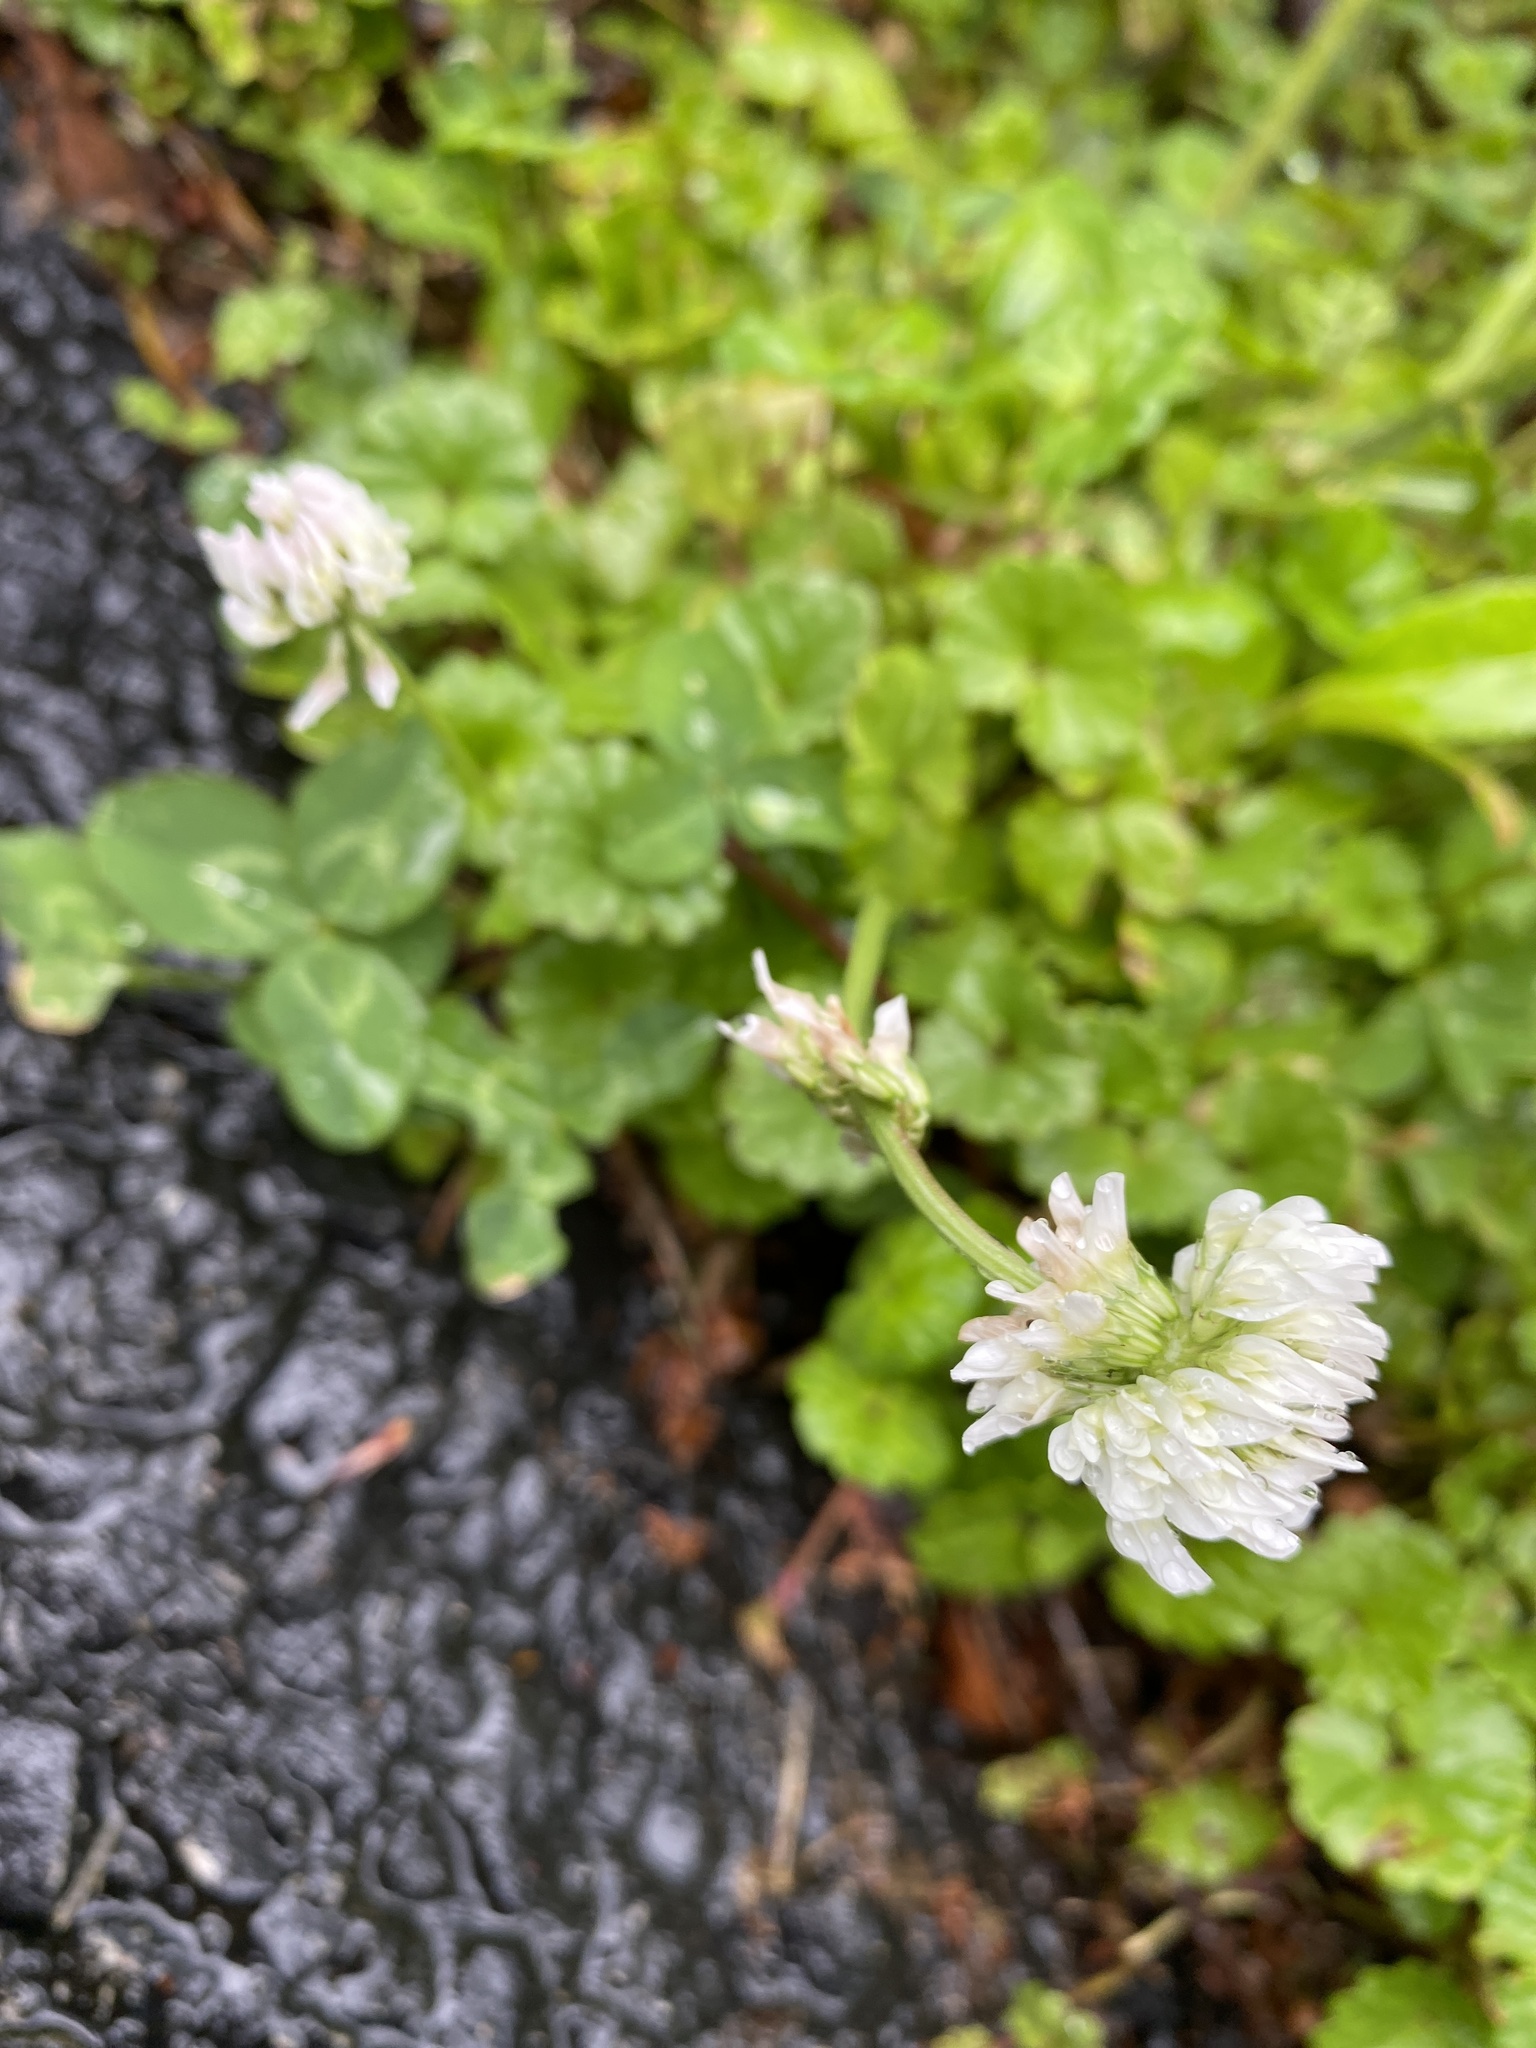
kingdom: Plantae
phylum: Tracheophyta
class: Magnoliopsida
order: Fabales
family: Fabaceae
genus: Trifolium
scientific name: Trifolium repens
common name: White clover
